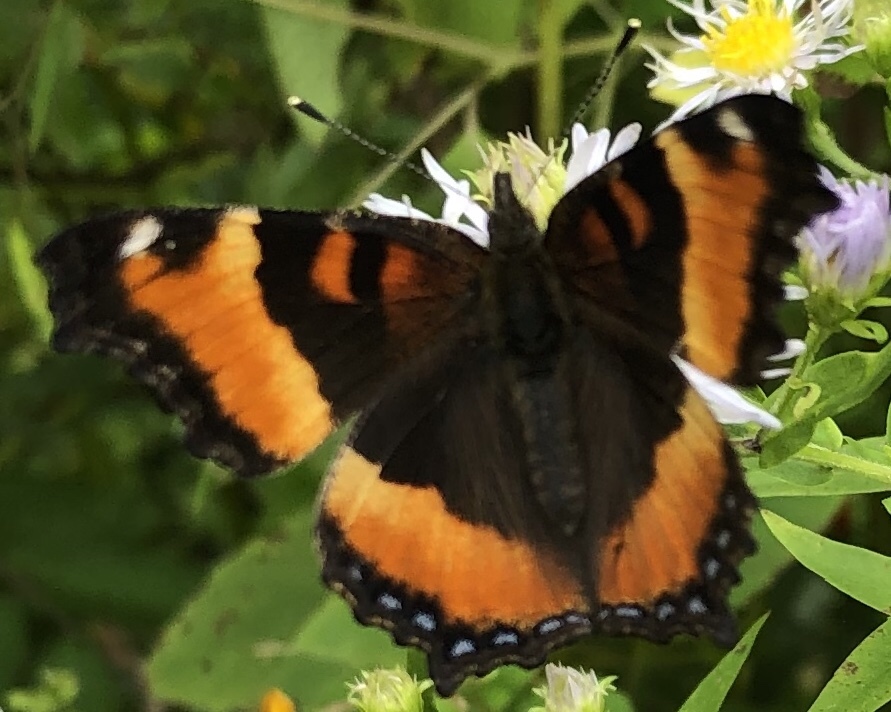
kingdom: Animalia
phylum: Arthropoda
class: Insecta
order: Lepidoptera
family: Nymphalidae
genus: Aglais
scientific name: Aglais milberti
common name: Milbert's tortoiseshell
